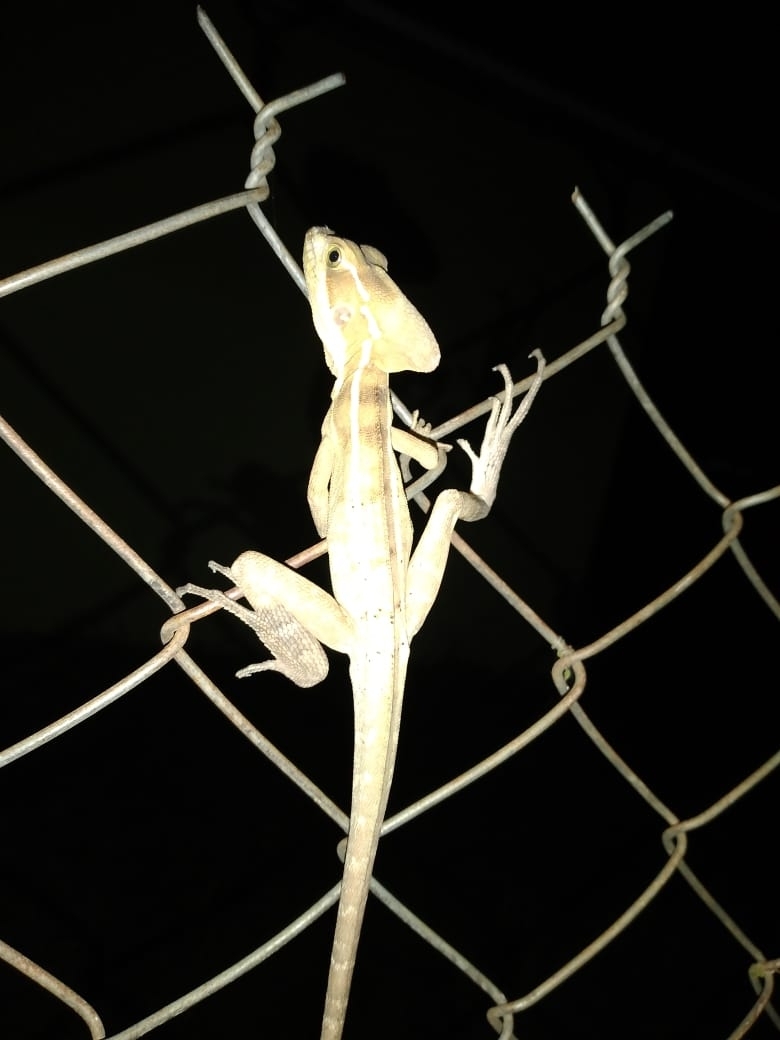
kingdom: Animalia
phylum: Chordata
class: Squamata
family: Corytophanidae
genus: Basiliscus
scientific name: Basiliscus vittatus
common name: Brown basilisk
